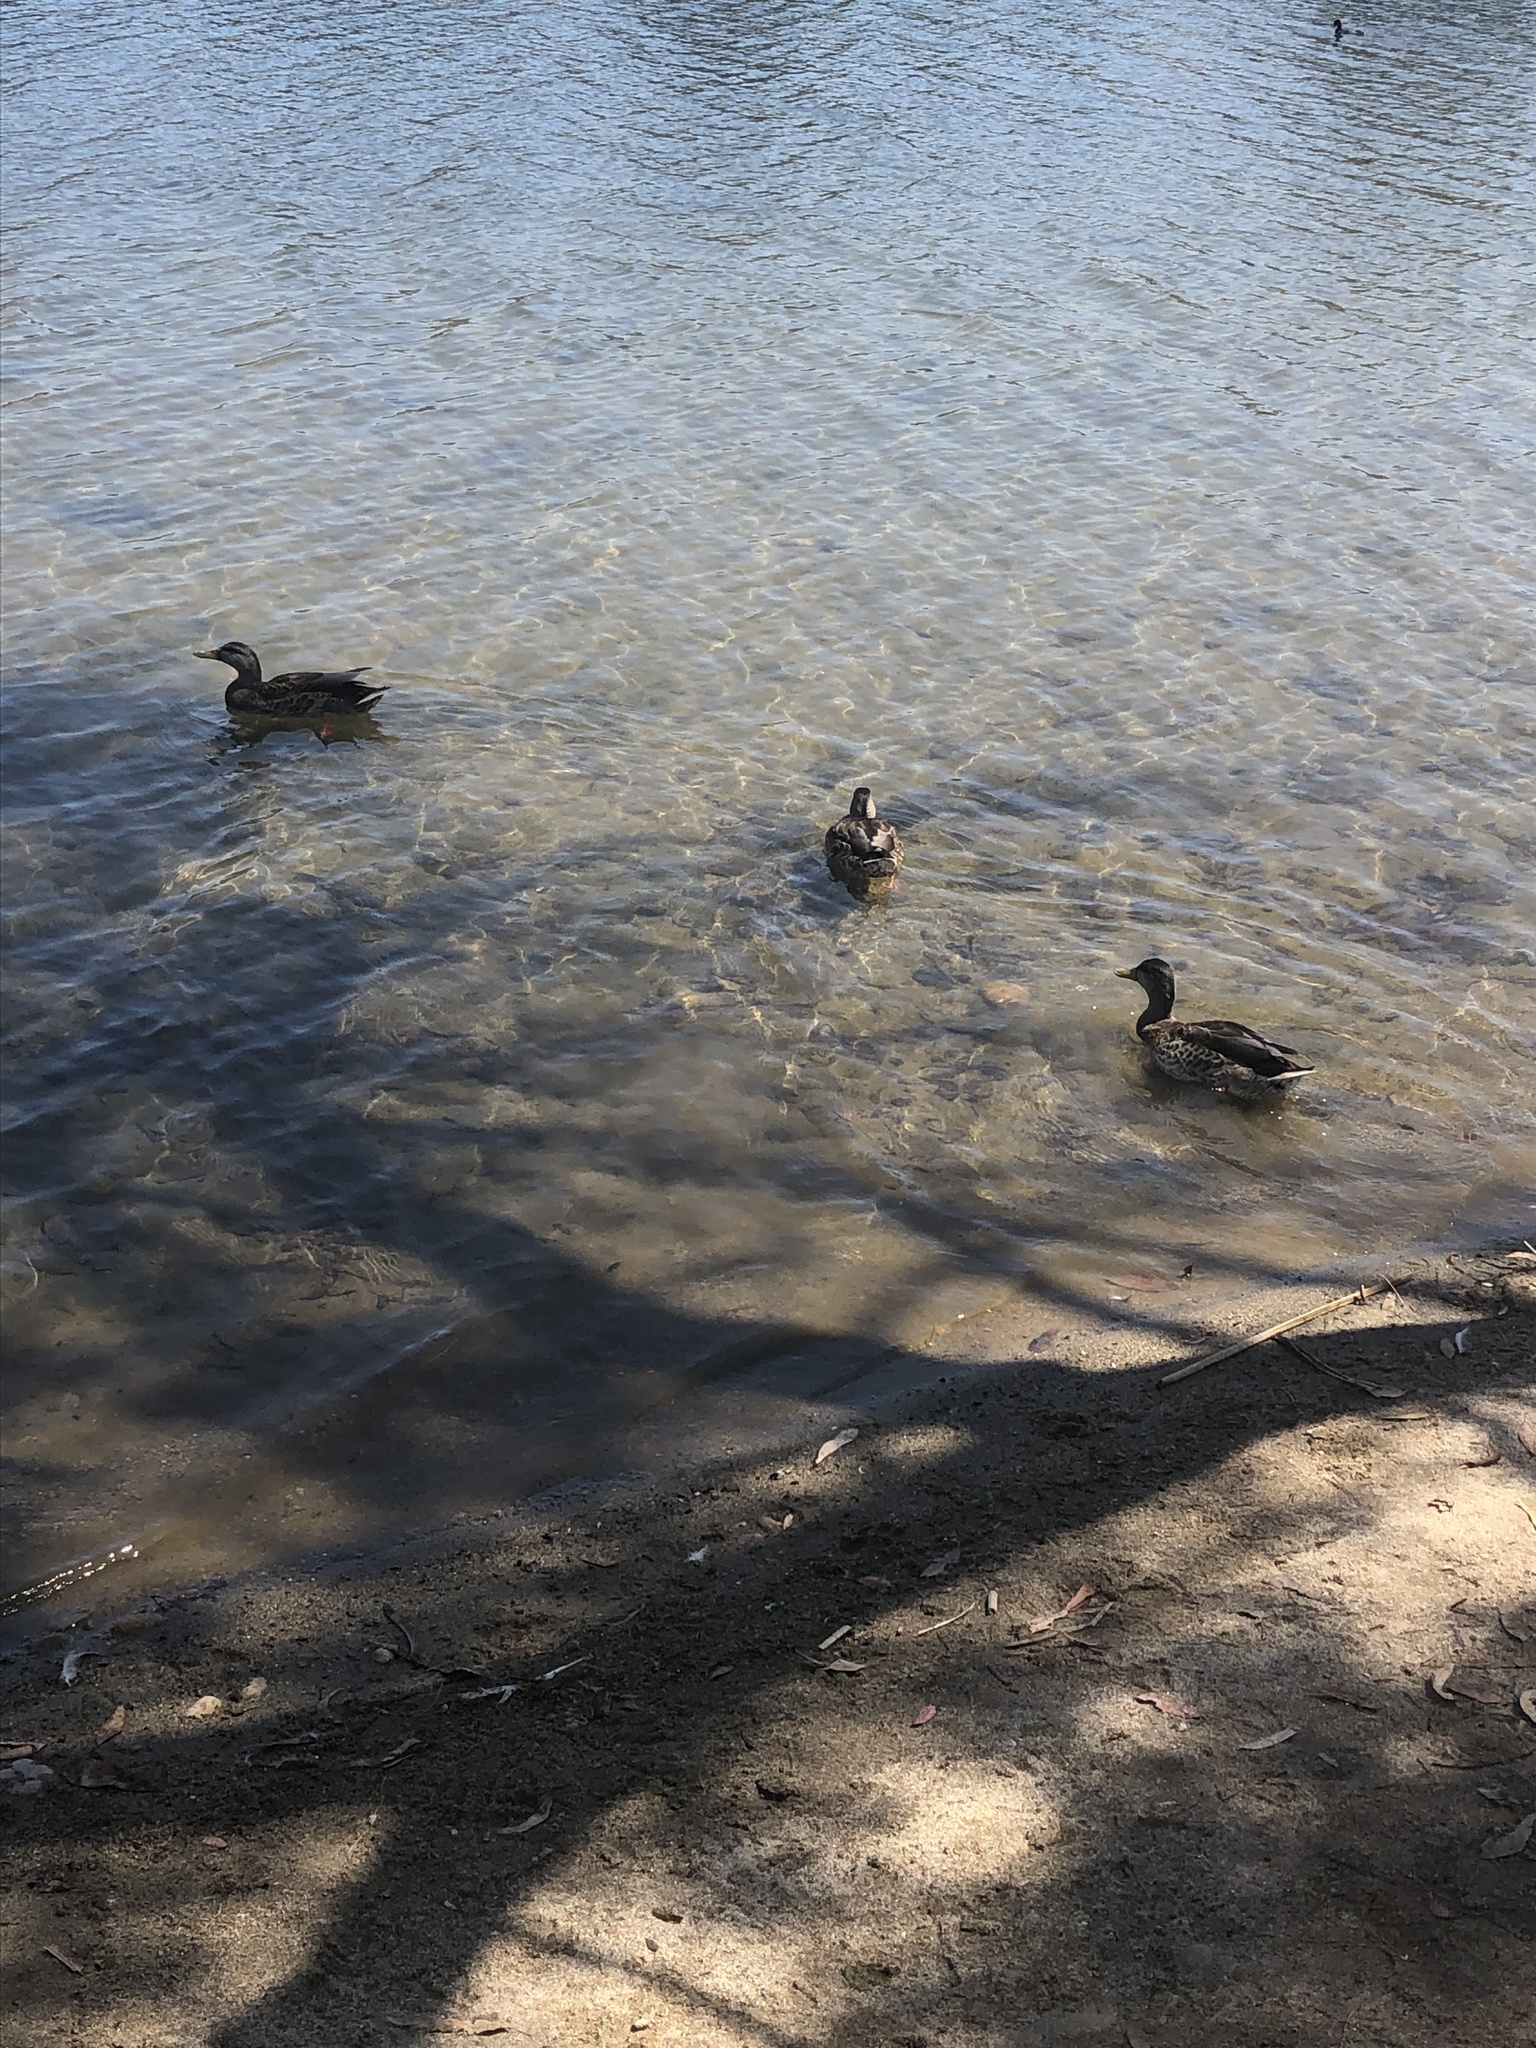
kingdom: Animalia
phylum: Chordata
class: Aves
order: Anseriformes
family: Anatidae
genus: Anas
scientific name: Anas platyrhynchos
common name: Mallard
